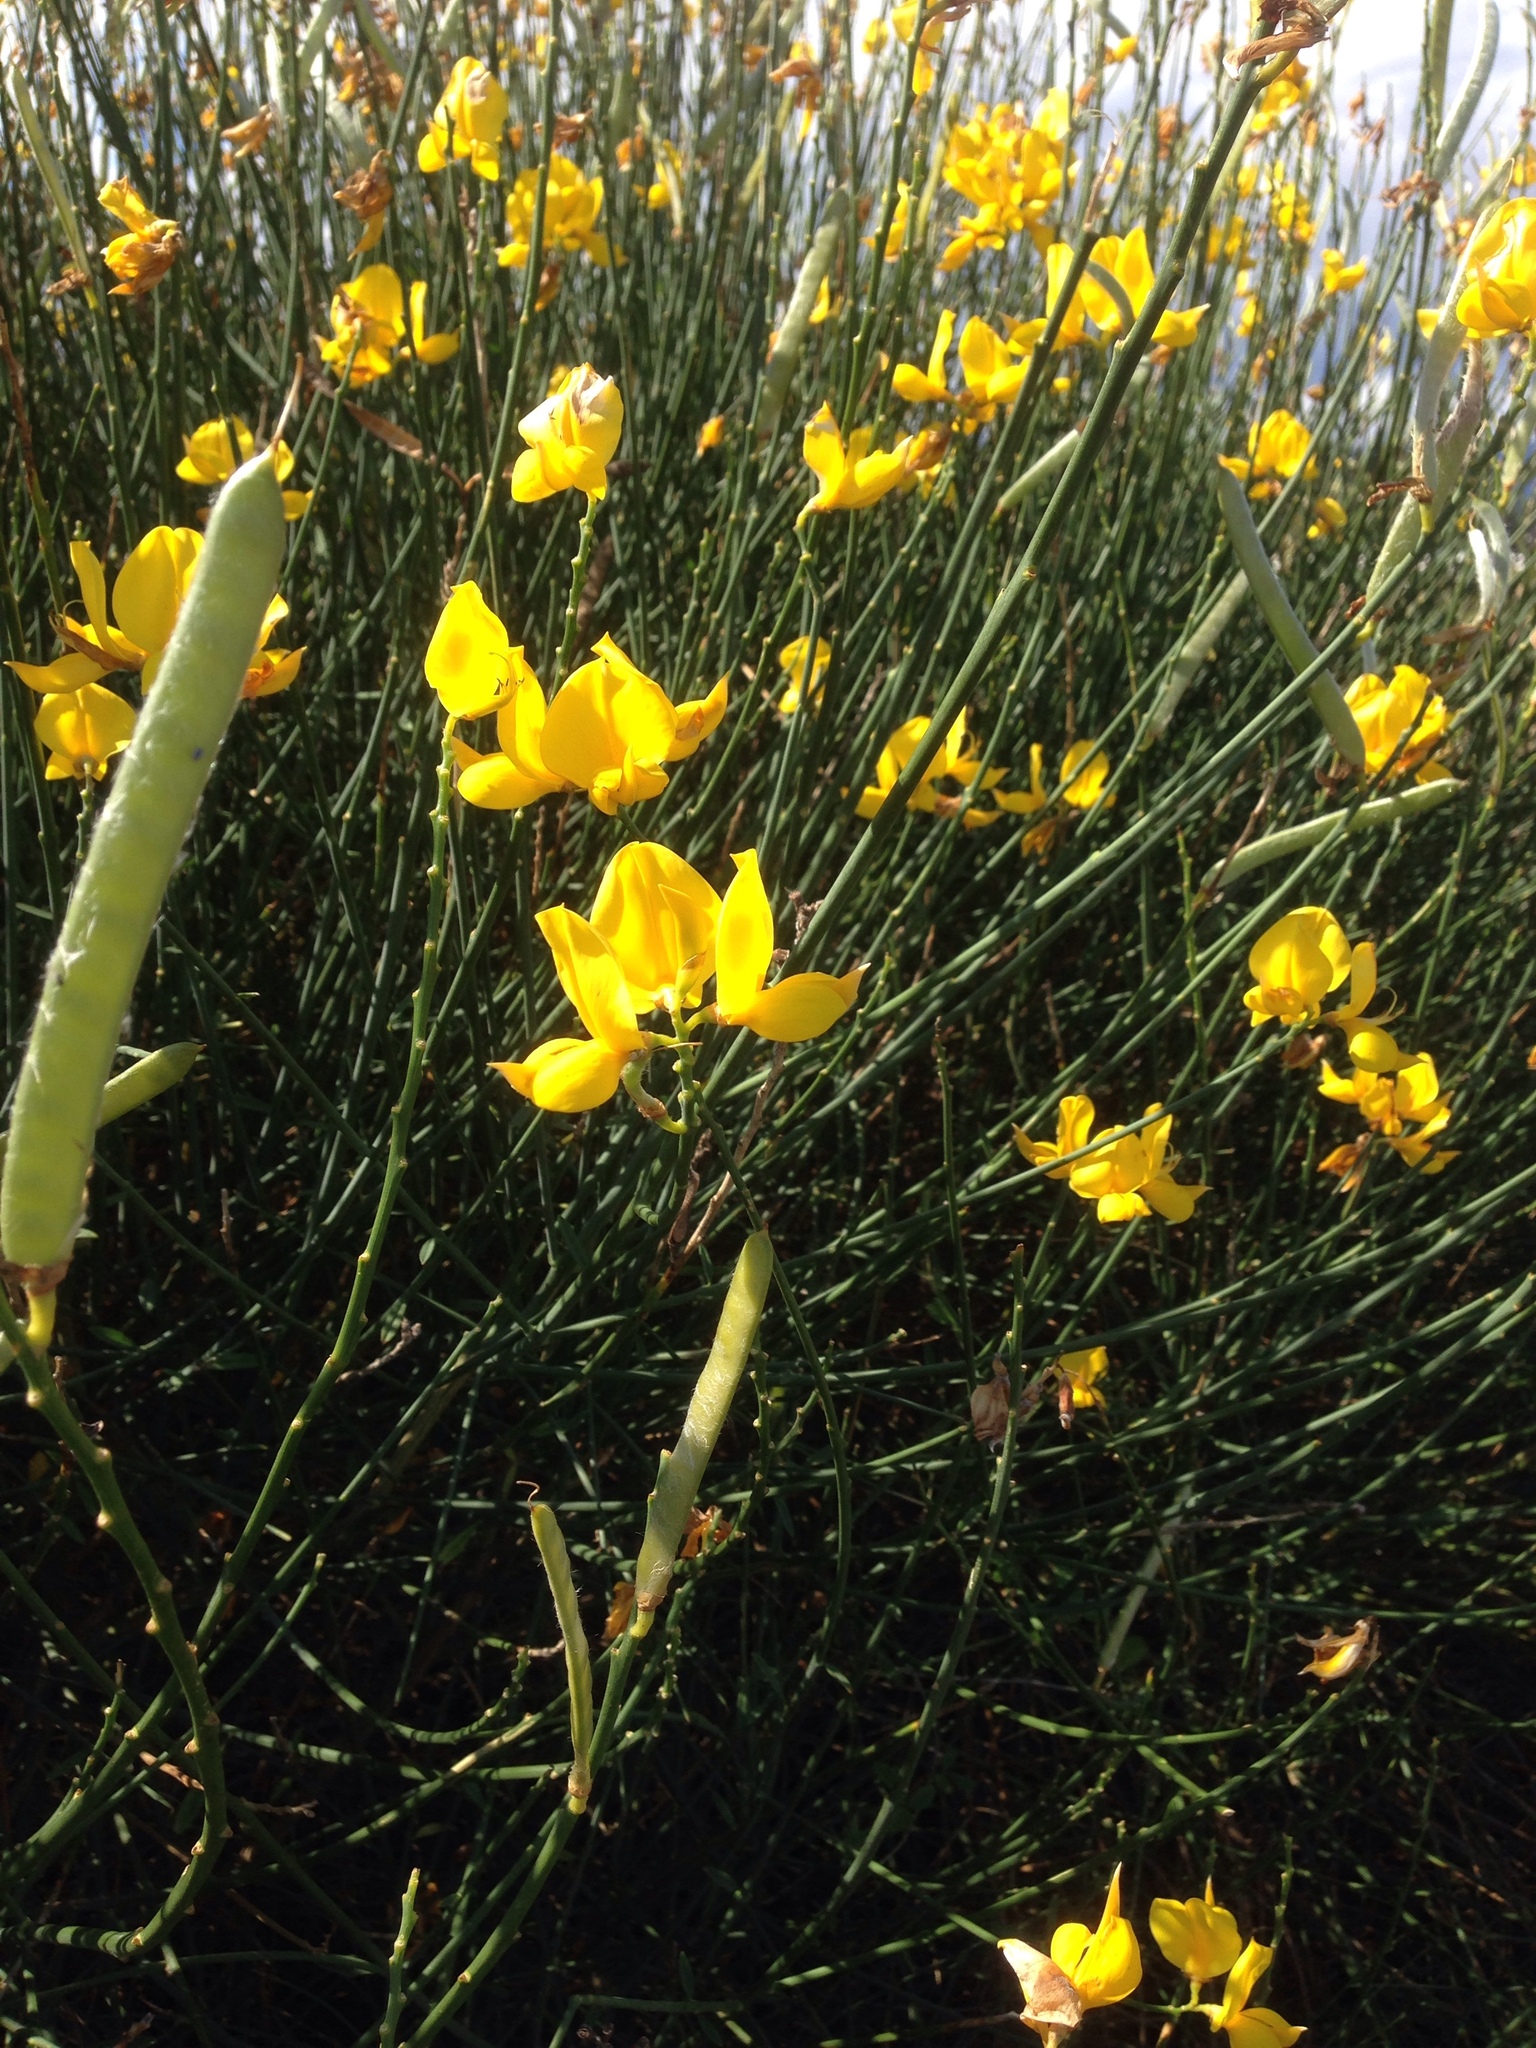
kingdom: Plantae
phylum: Tracheophyta
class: Magnoliopsida
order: Fabales
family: Fabaceae
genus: Spartium
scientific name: Spartium junceum
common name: Spanish broom
